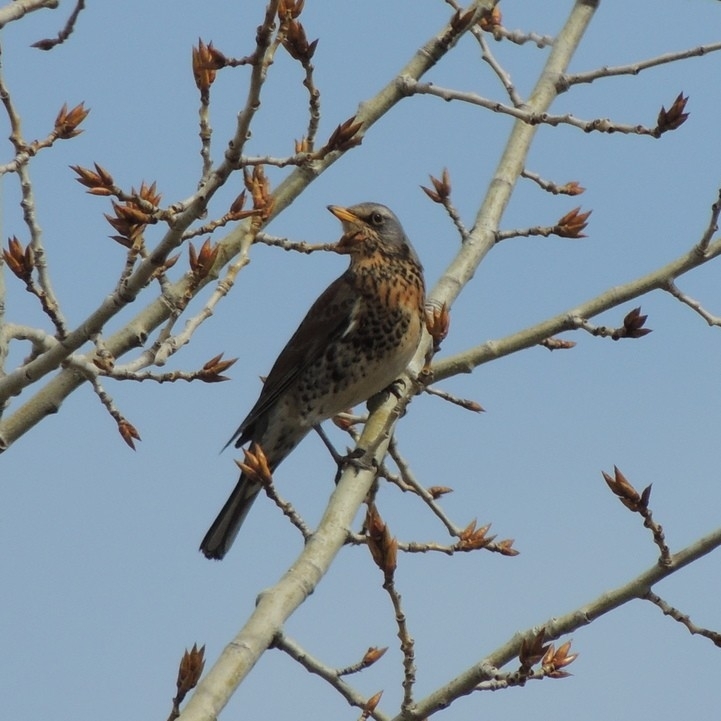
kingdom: Animalia
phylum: Chordata
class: Aves
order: Passeriformes
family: Turdidae
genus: Turdus
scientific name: Turdus pilaris
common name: Fieldfare
